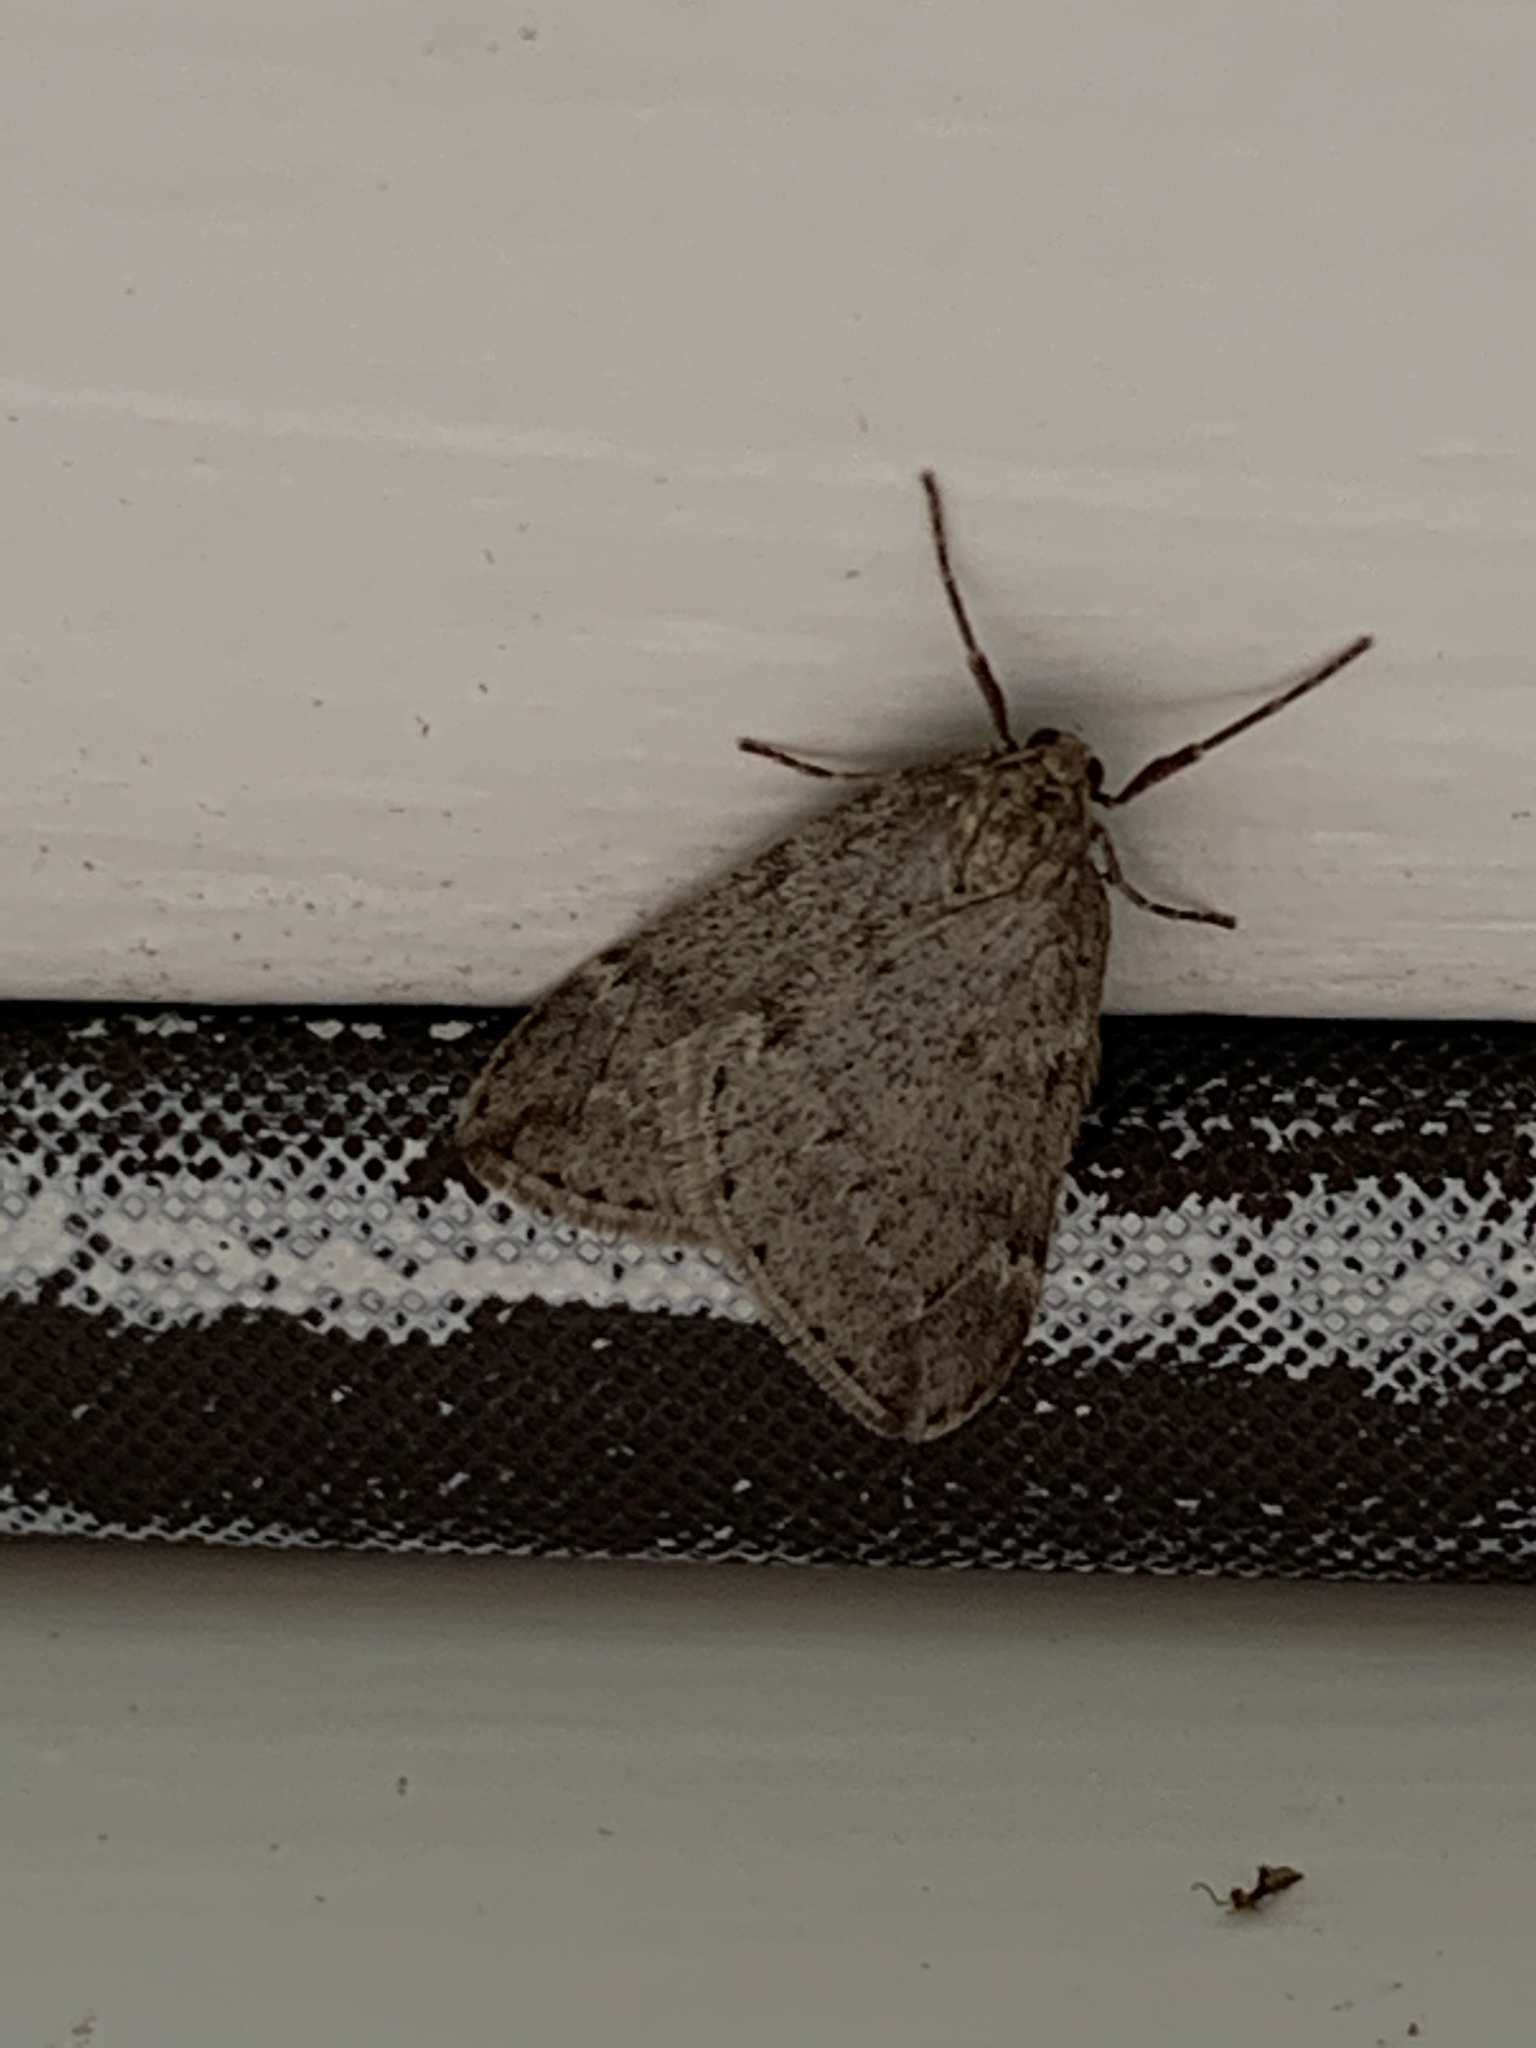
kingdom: Animalia
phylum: Arthropoda
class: Insecta
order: Lepidoptera
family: Geometridae
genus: Alsophila
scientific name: Alsophila pometaria
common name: Fall cankerworm
